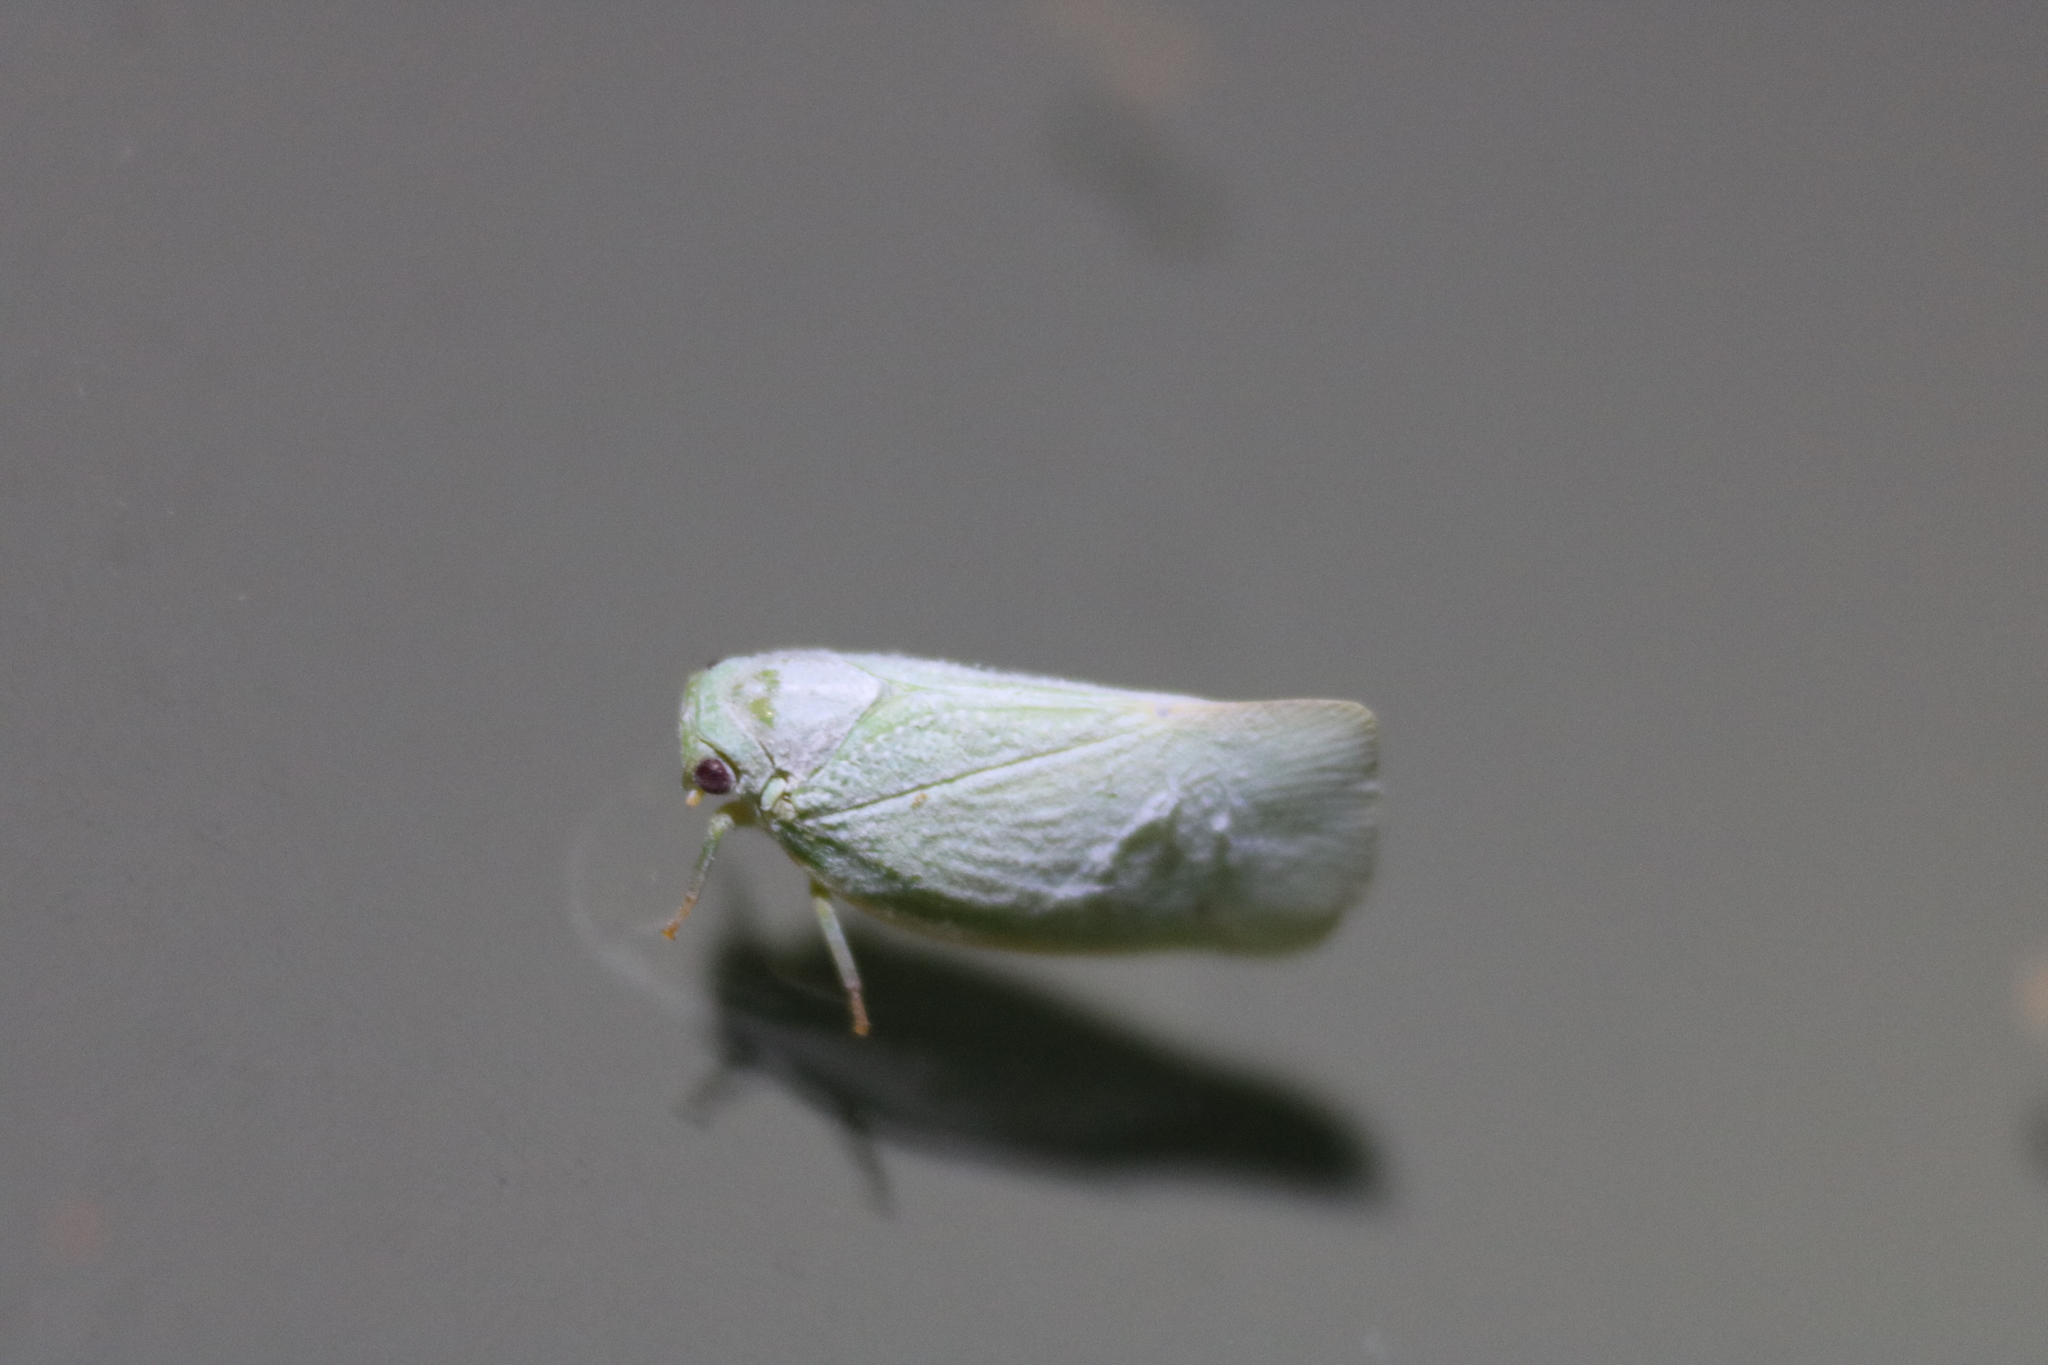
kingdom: Animalia
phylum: Arthropoda
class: Insecta
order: Hemiptera
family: Flatidae
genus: Flatormenis
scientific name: Flatormenis proxima
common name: Northern flatid planthopper
